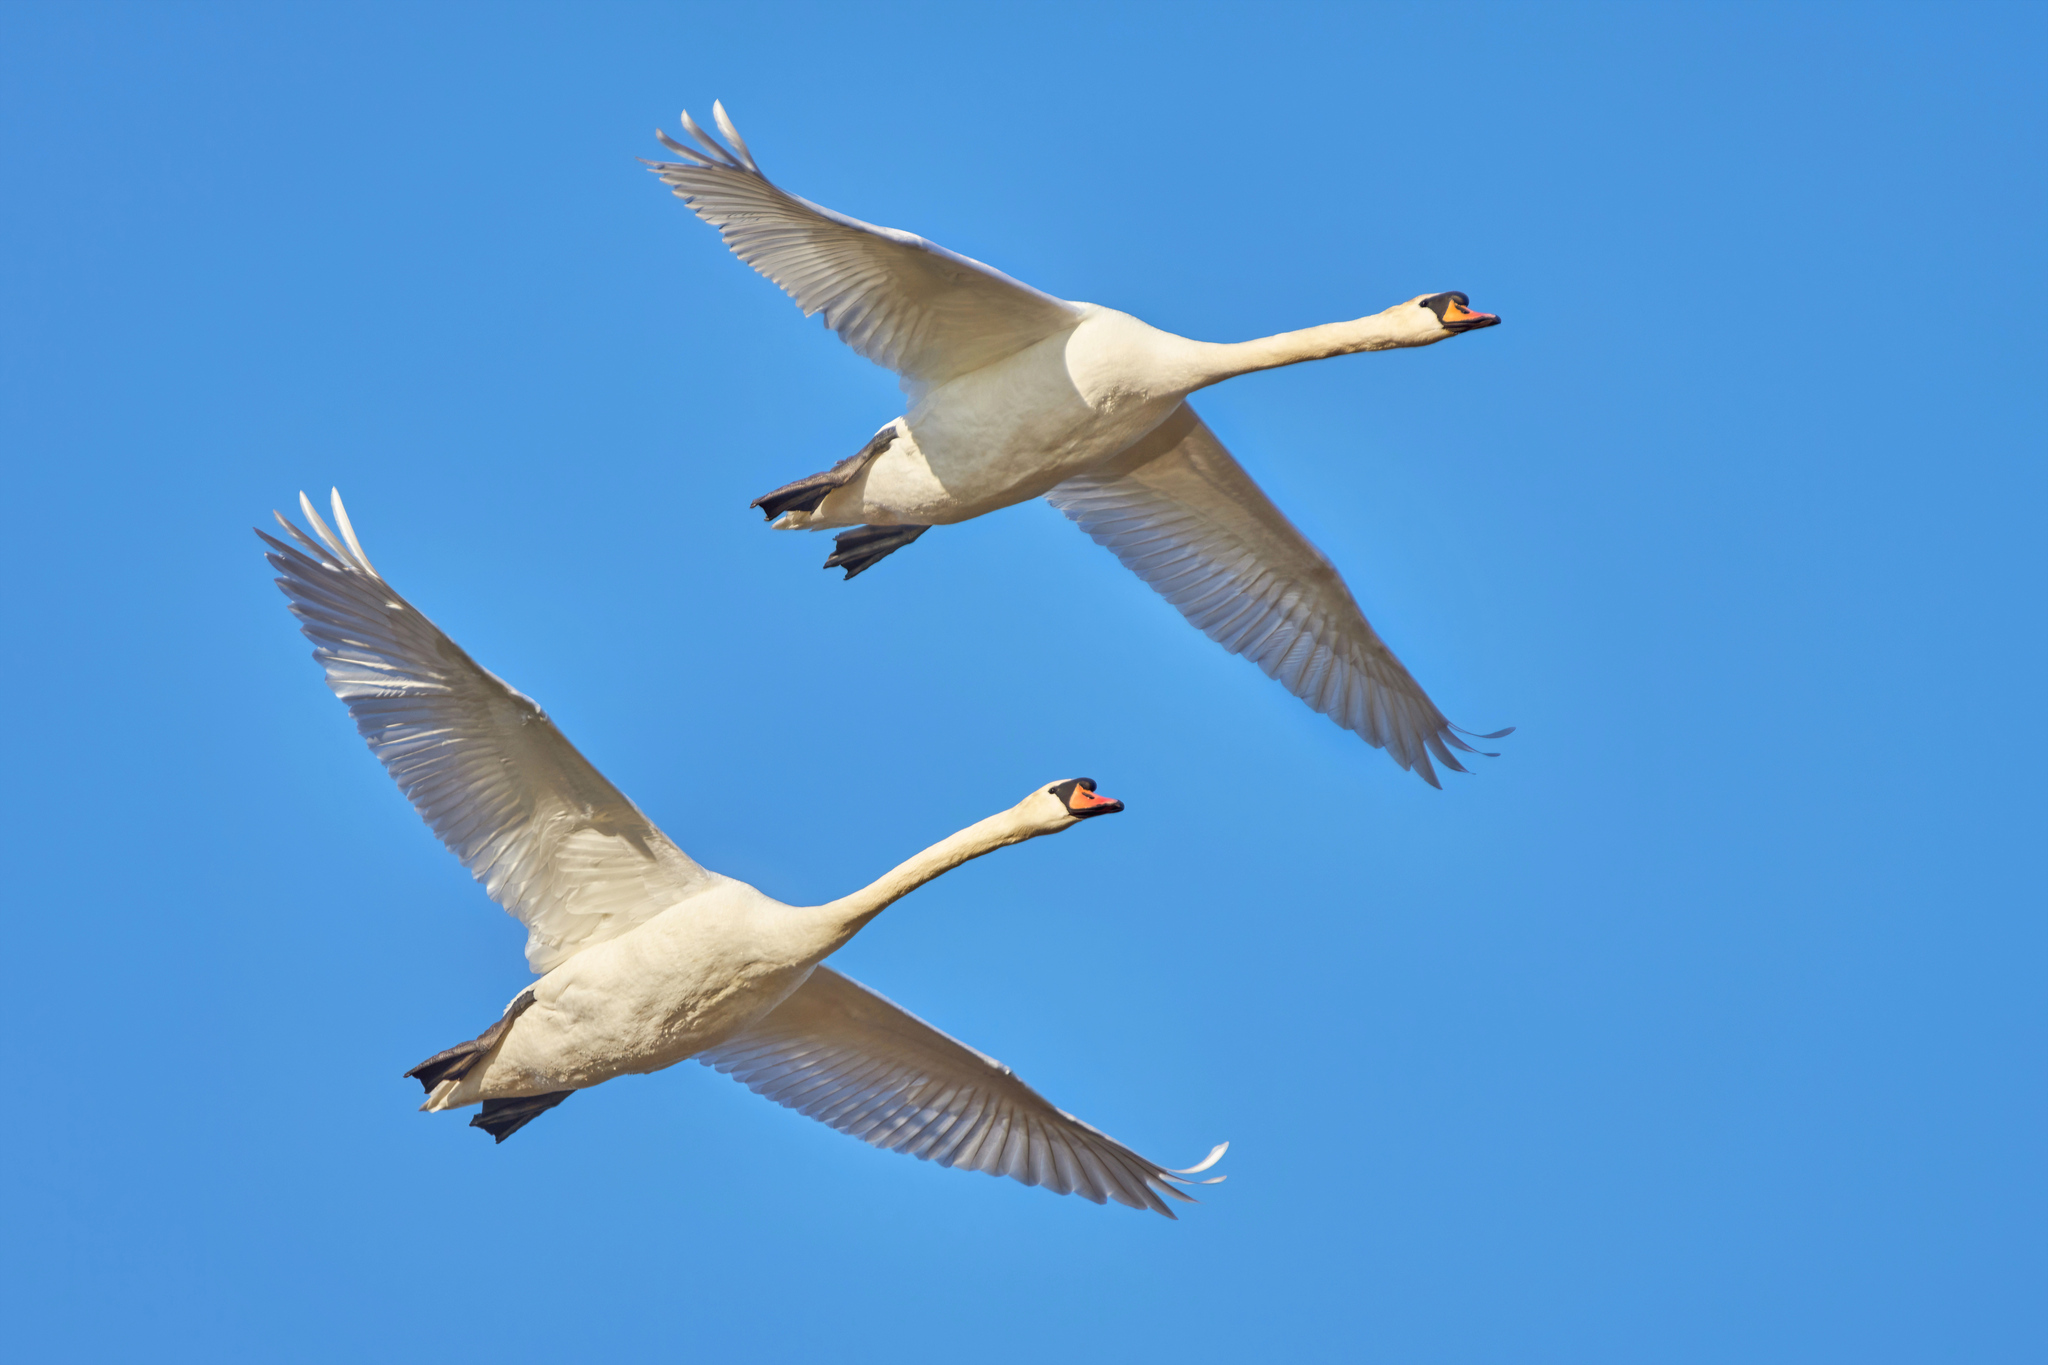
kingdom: Animalia
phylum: Chordata
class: Aves
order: Anseriformes
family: Anatidae
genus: Cygnus
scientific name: Cygnus olor
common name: Mute swan
